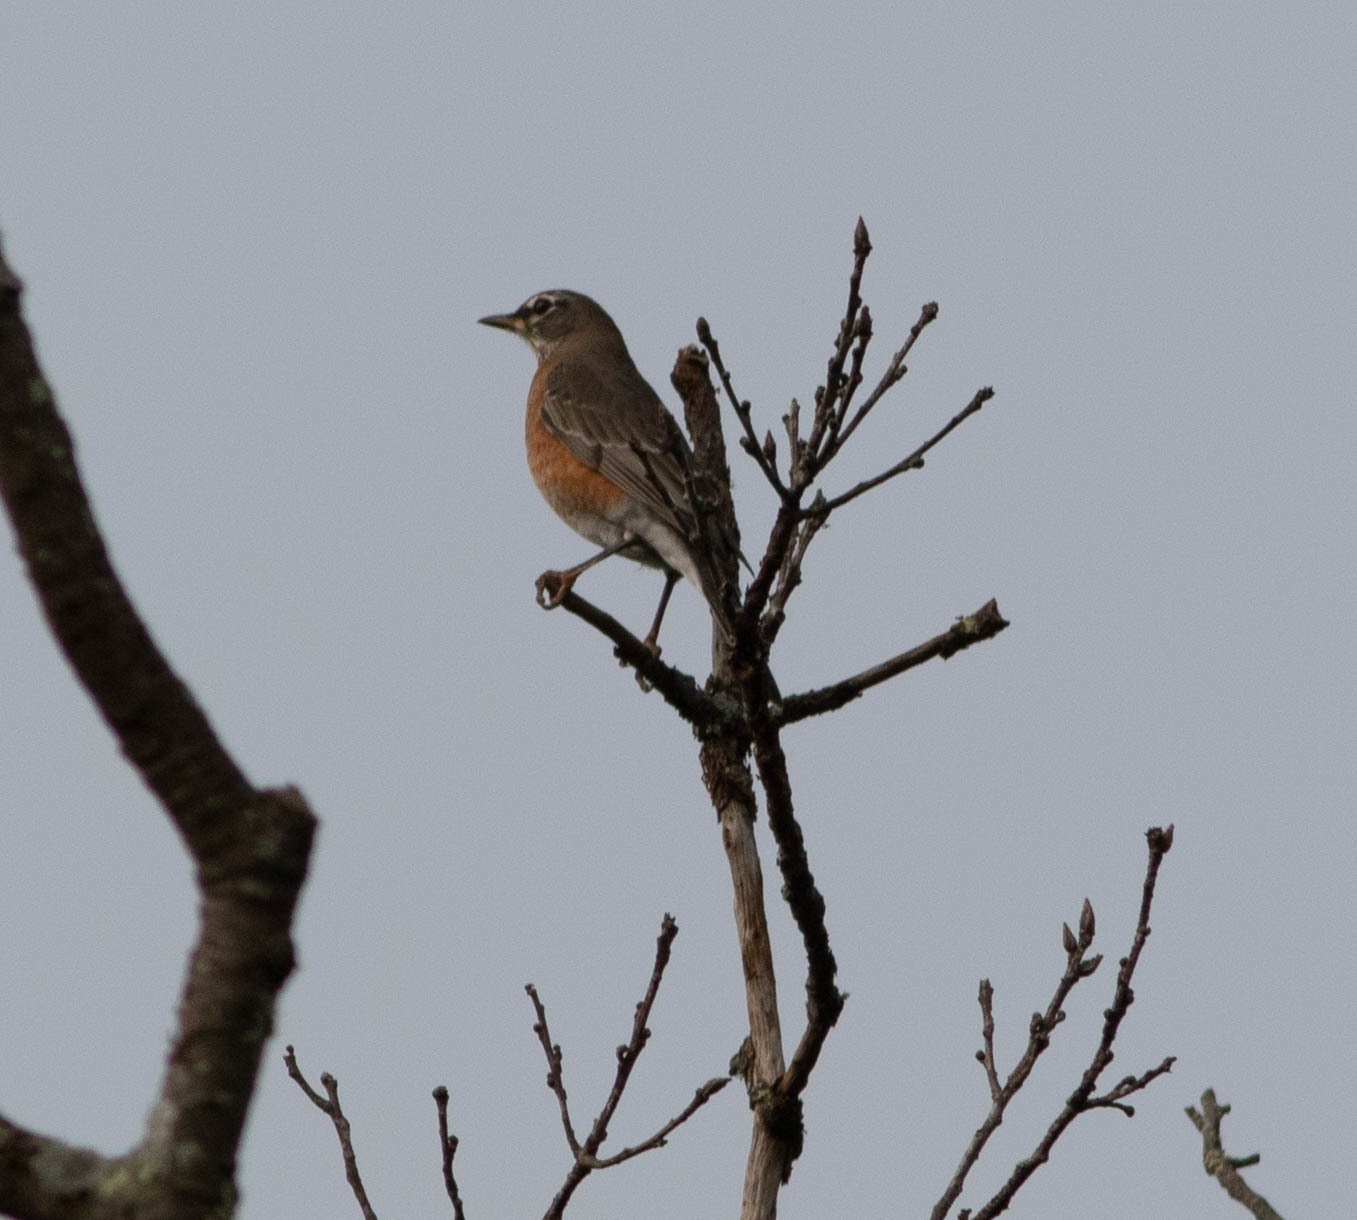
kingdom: Animalia
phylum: Chordata
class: Aves
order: Passeriformes
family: Turdidae
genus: Turdus
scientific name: Turdus migratorius
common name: American robin
